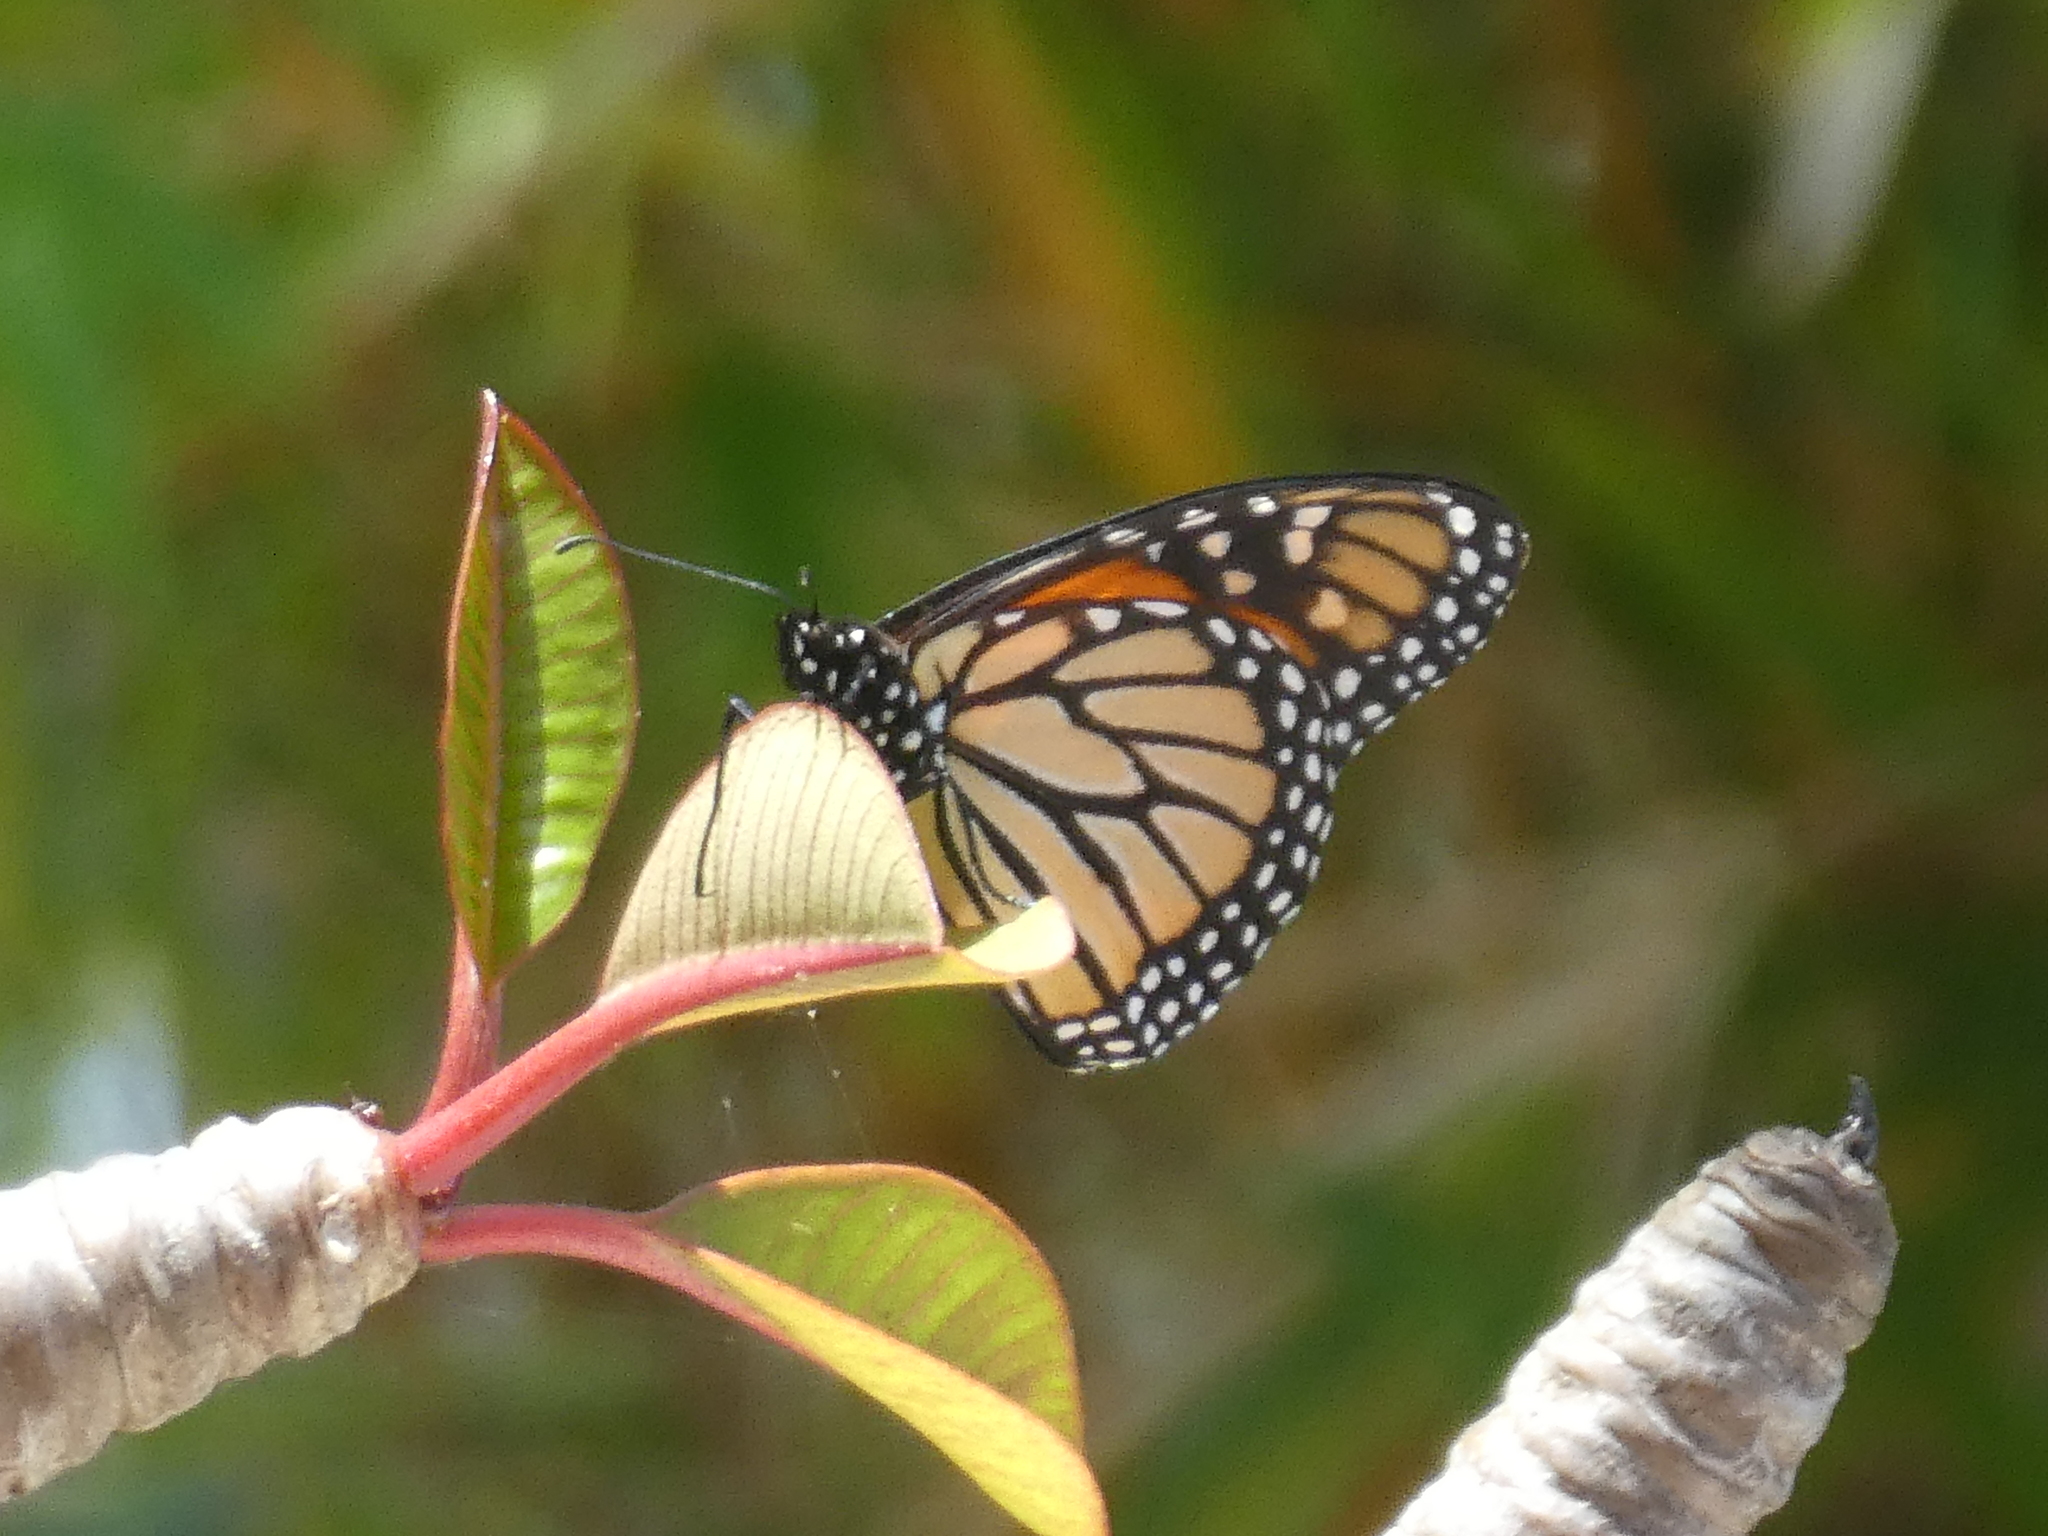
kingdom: Animalia
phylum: Arthropoda
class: Insecta
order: Lepidoptera
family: Nymphalidae
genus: Danaus
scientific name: Danaus plexippus
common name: Monarch
